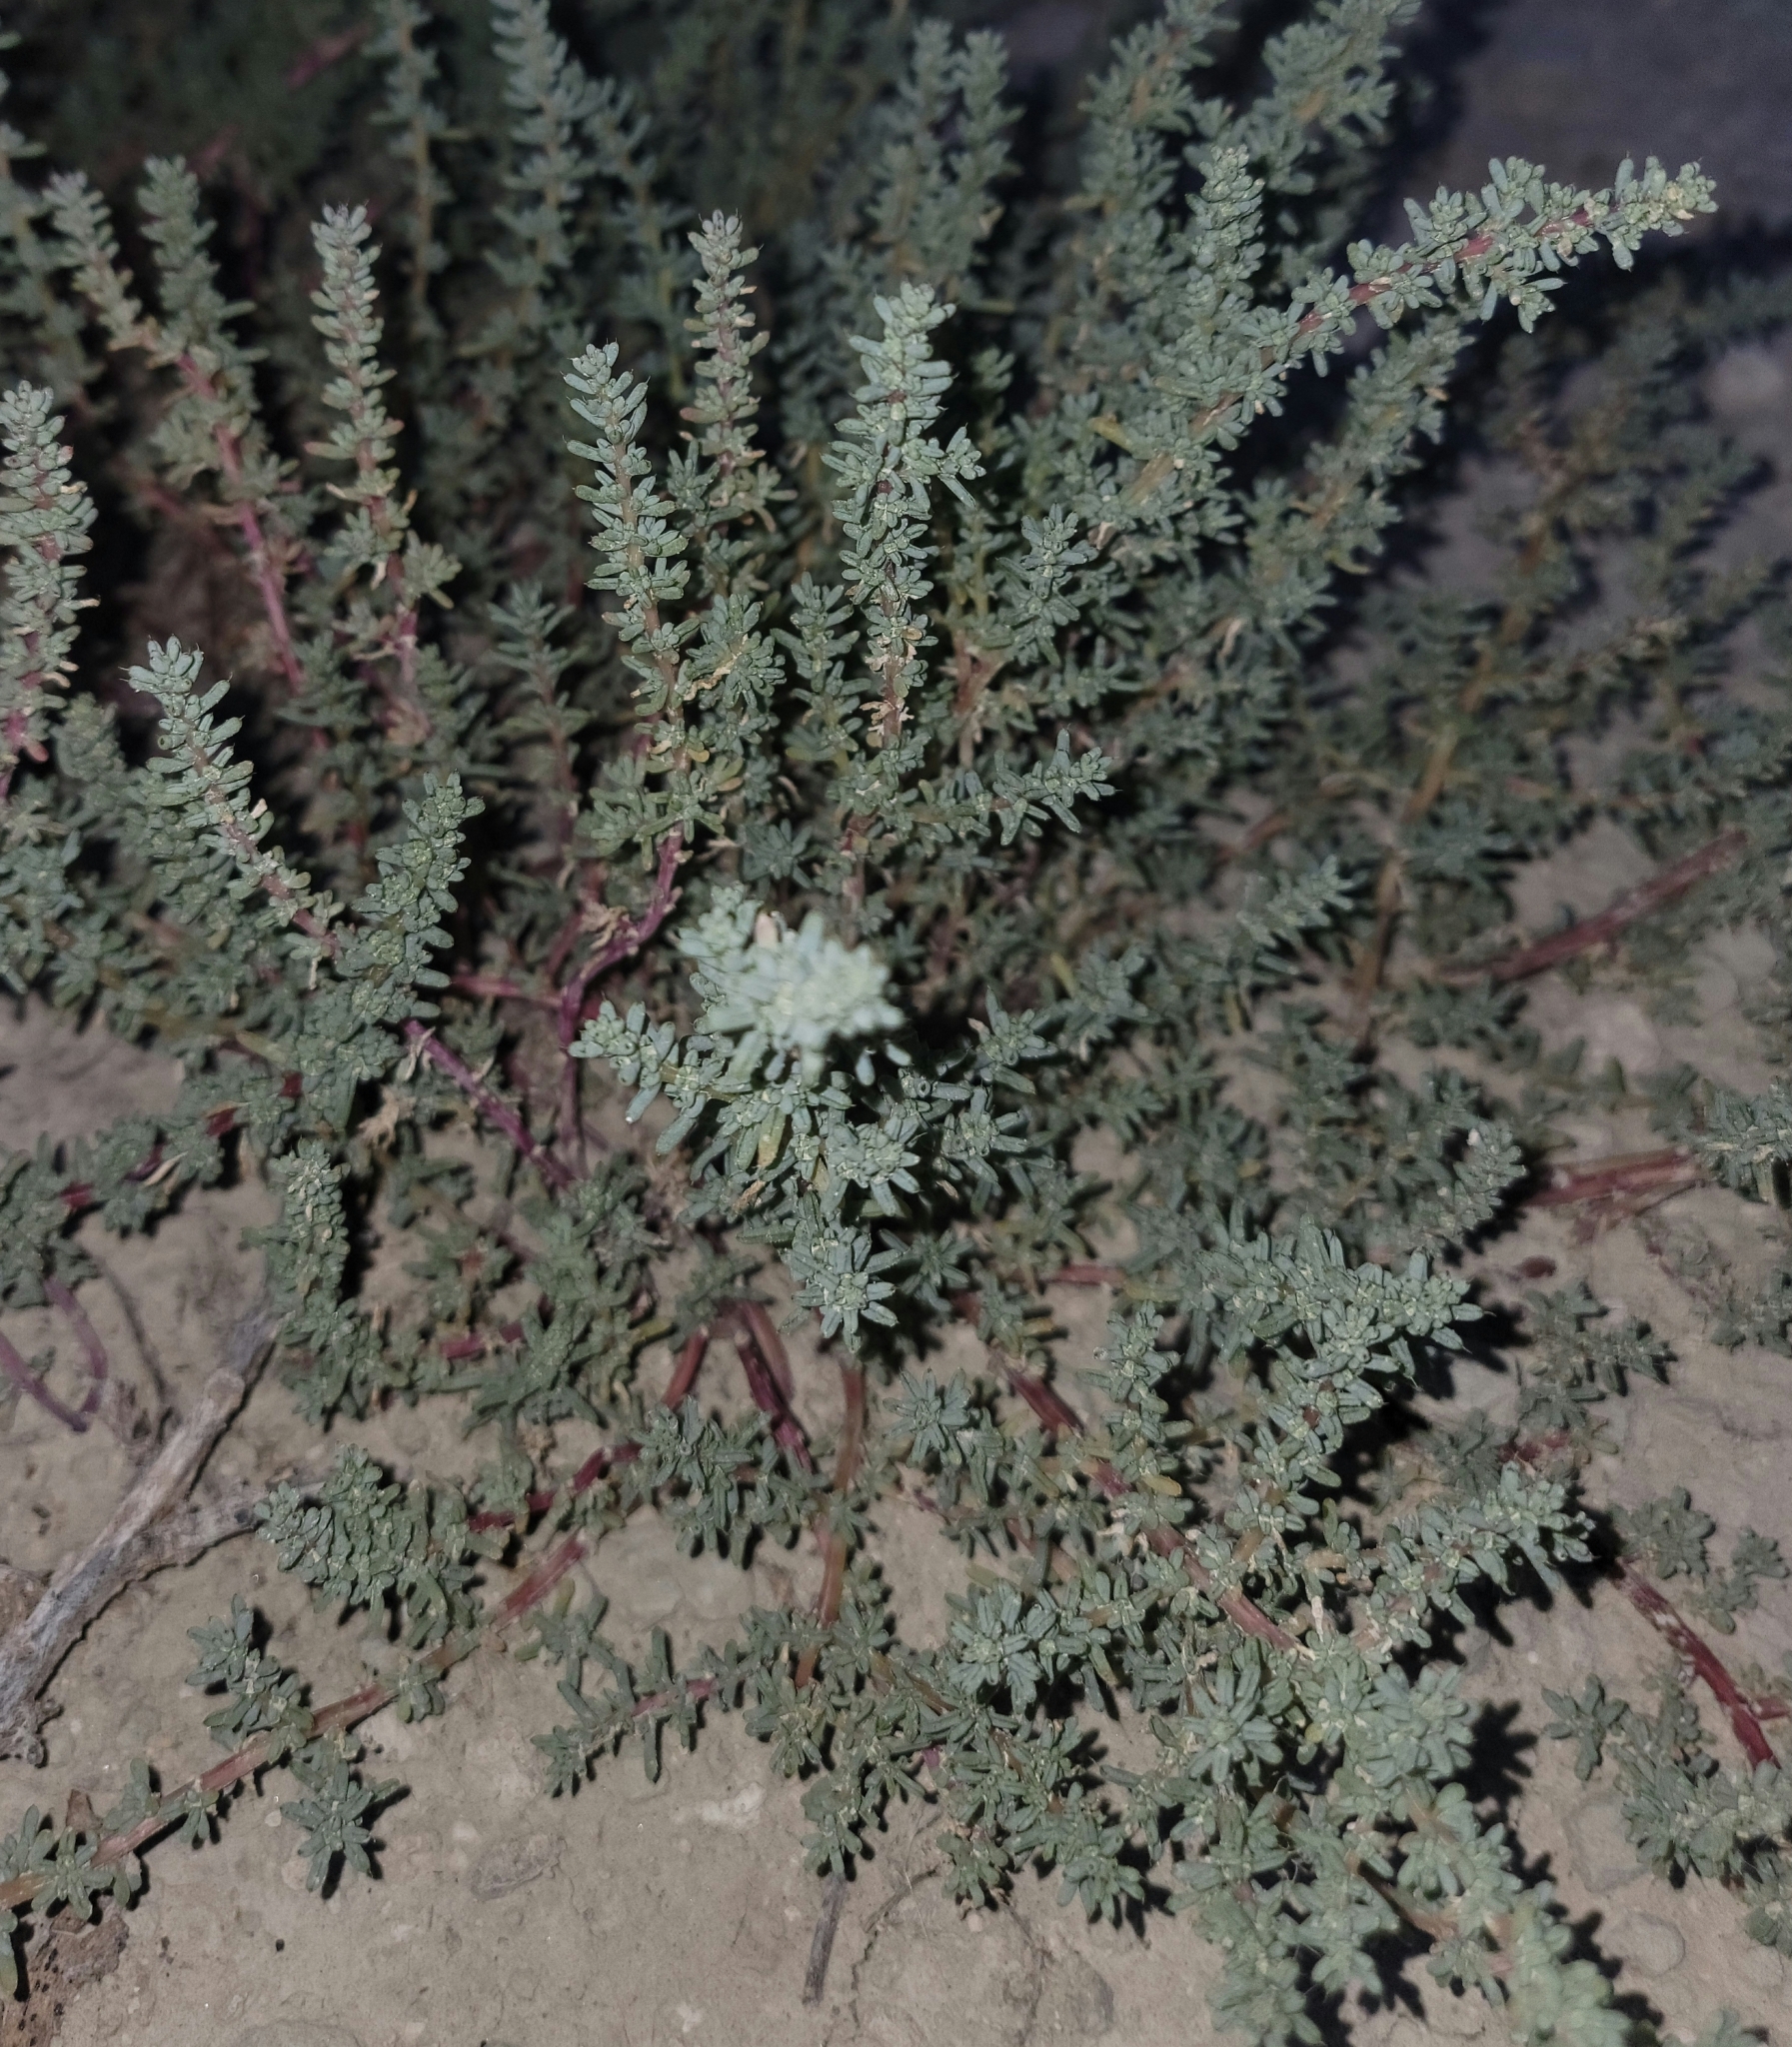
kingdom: Plantae
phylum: Tracheophyta
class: Magnoliopsida
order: Caryophyllales
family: Amaranthaceae
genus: Halogeton
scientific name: Halogeton glomeratus
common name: Saltlover
